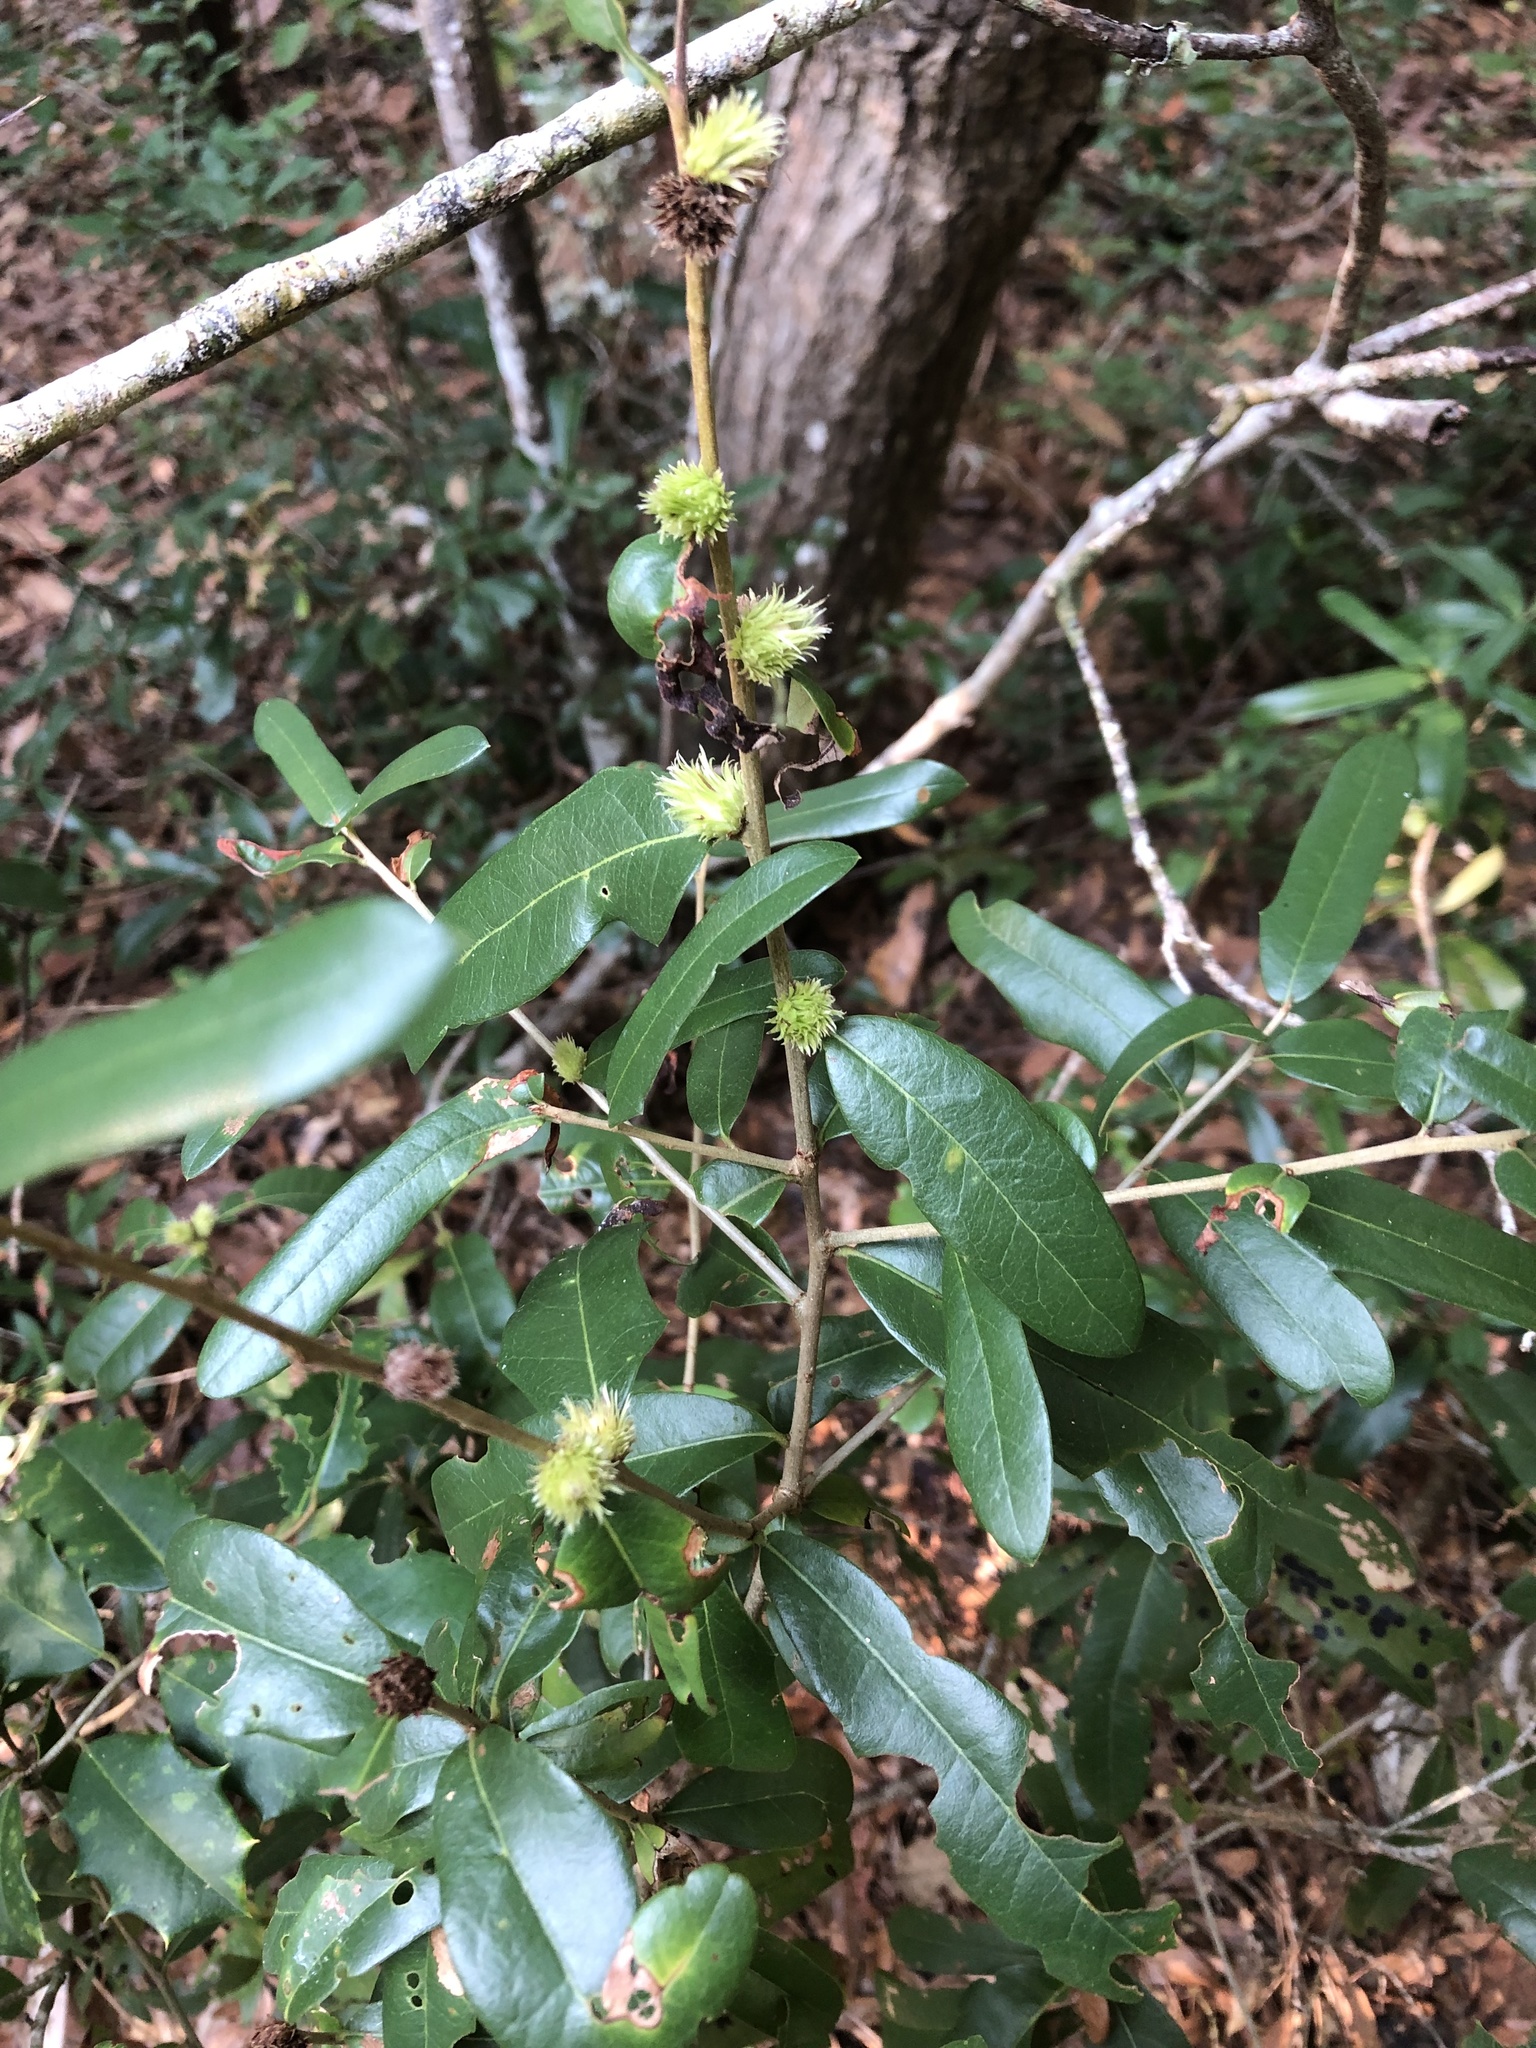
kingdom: Animalia
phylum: Arthropoda
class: Insecta
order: Hymenoptera
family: Cynipidae
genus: Andricus
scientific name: Andricus quercusfoliatus
